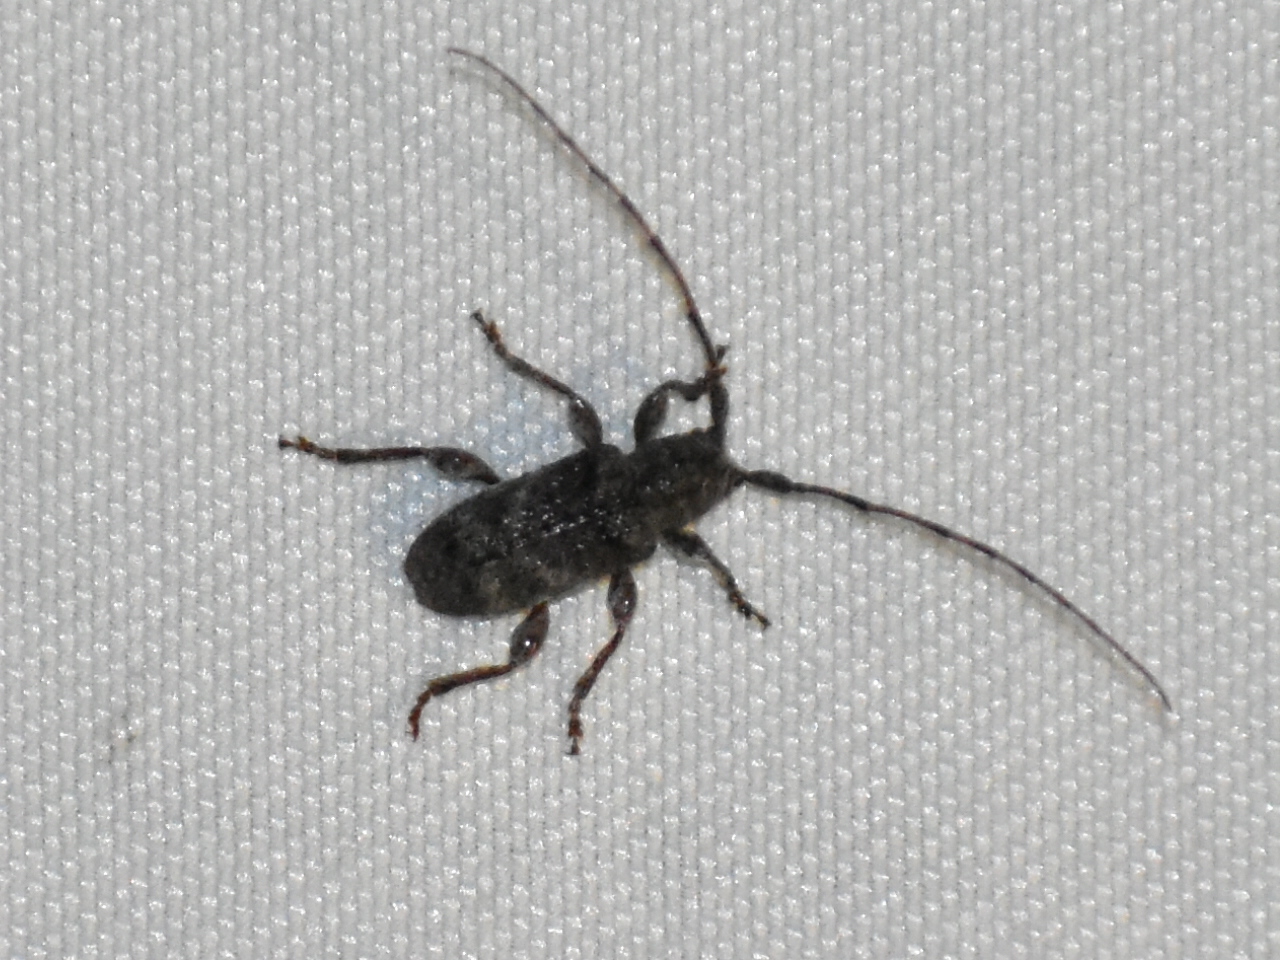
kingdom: Animalia
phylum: Arthropoda
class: Insecta
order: Coleoptera
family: Cerambycidae
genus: Ecyrus
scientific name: Ecyrus dasycerus
